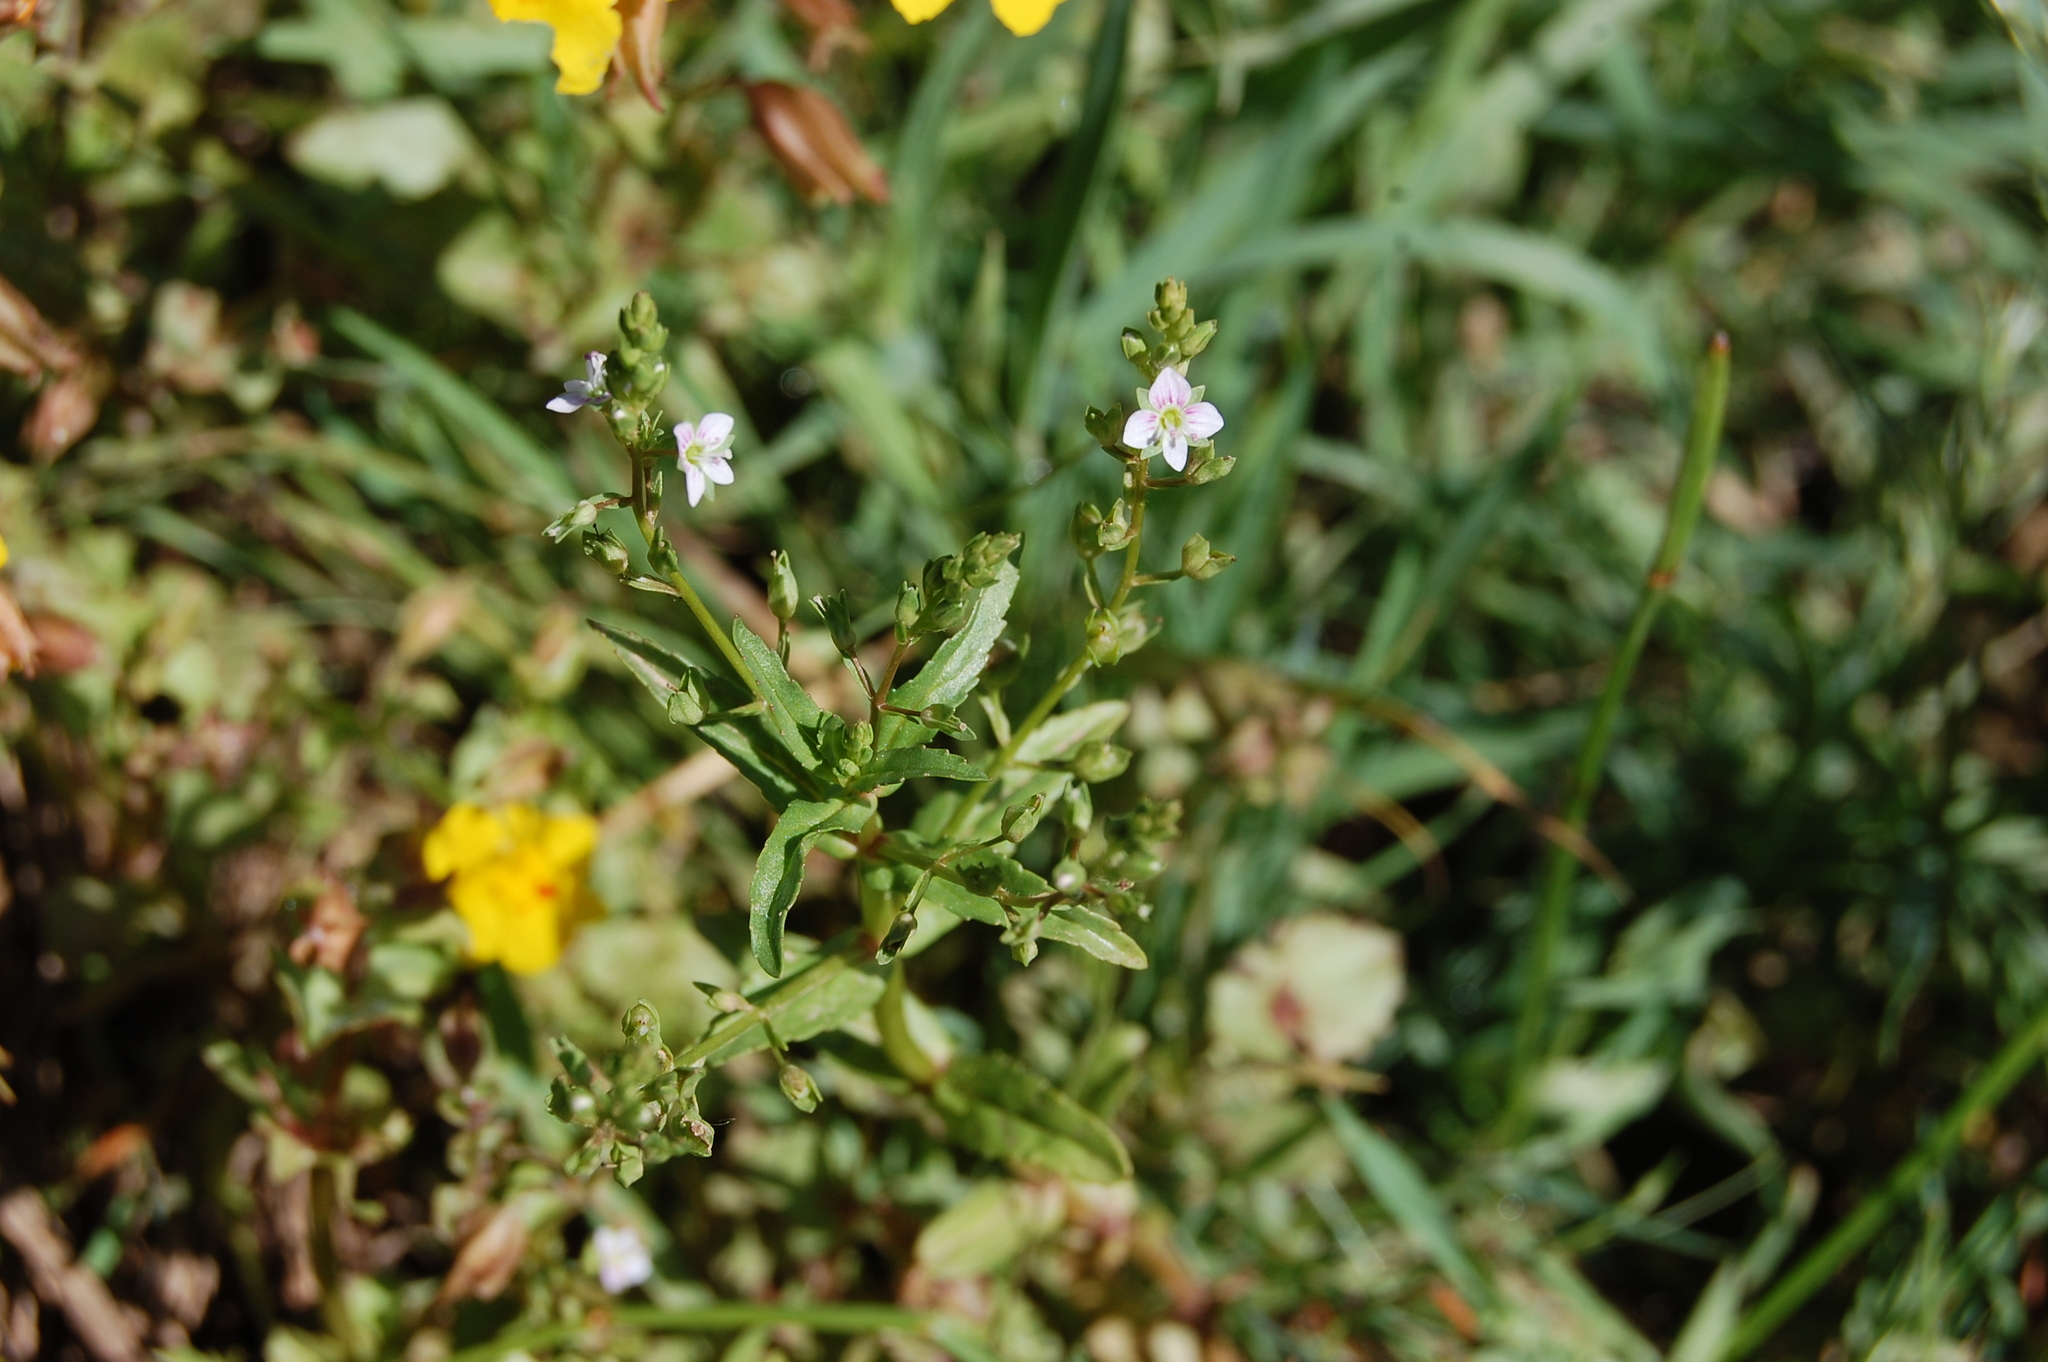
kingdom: Plantae
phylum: Tracheophyta
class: Magnoliopsida
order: Lamiales
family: Plantaginaceae
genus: Veronica
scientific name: Veronica catenata
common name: Pink water-speedwell
